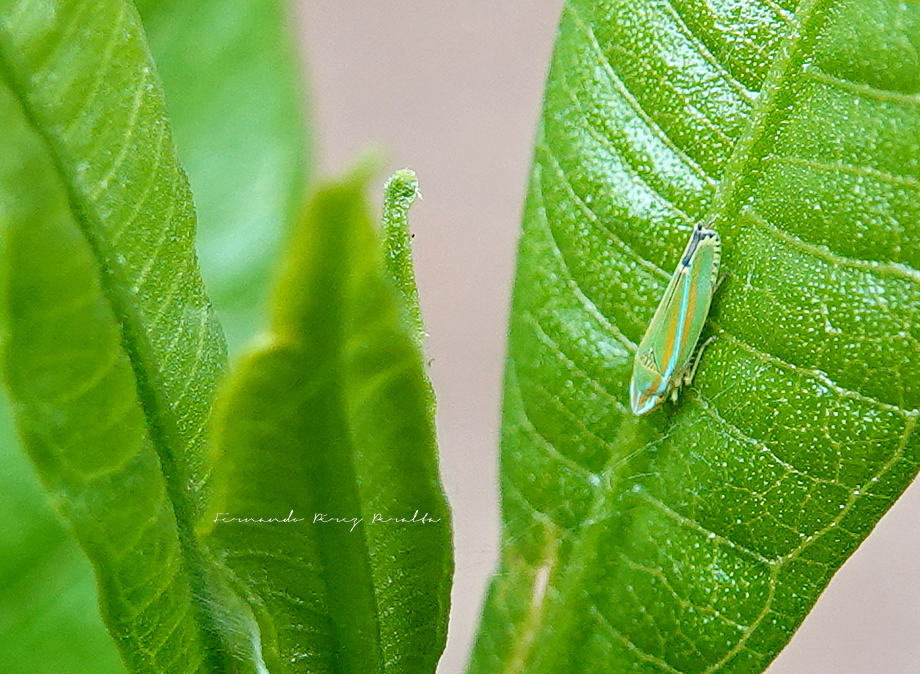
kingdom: Animalia
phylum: Arthropoda
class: Insecta
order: Hemiptera
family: Cicadellidae
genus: Graphocephala
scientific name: Graphocephala versuta
